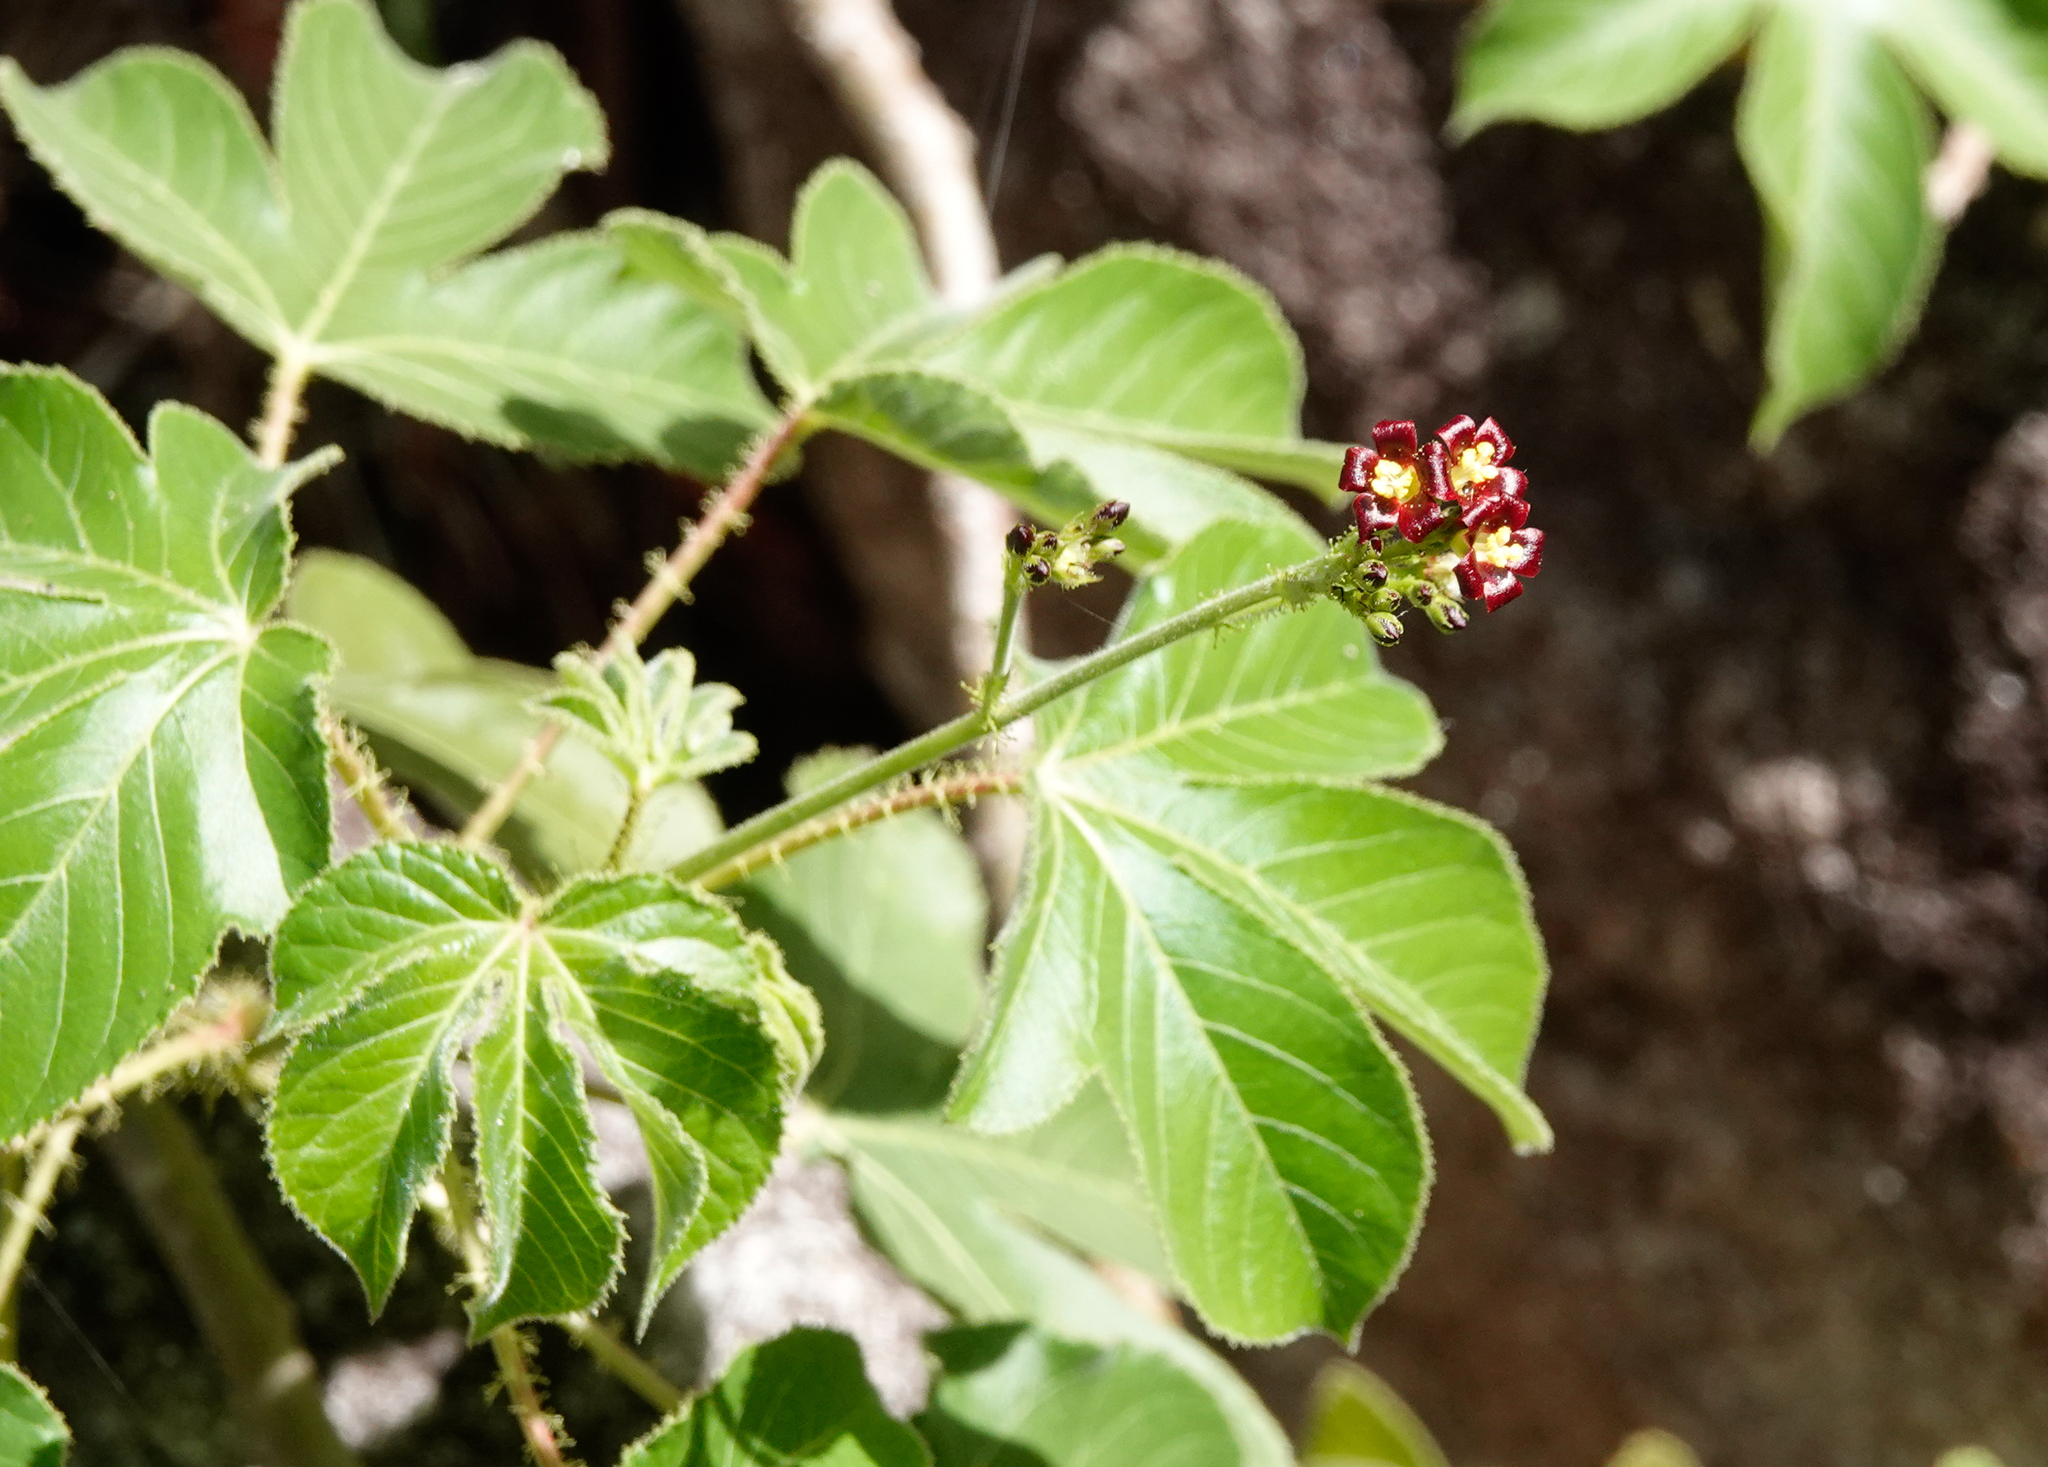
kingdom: Plantae
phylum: Tracheophyta
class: Magnoliopsida
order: Malpighiales
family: Euphorbiaceae
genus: Jatropha
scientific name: Jatropha gossypiifolia
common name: Bellyache bush
